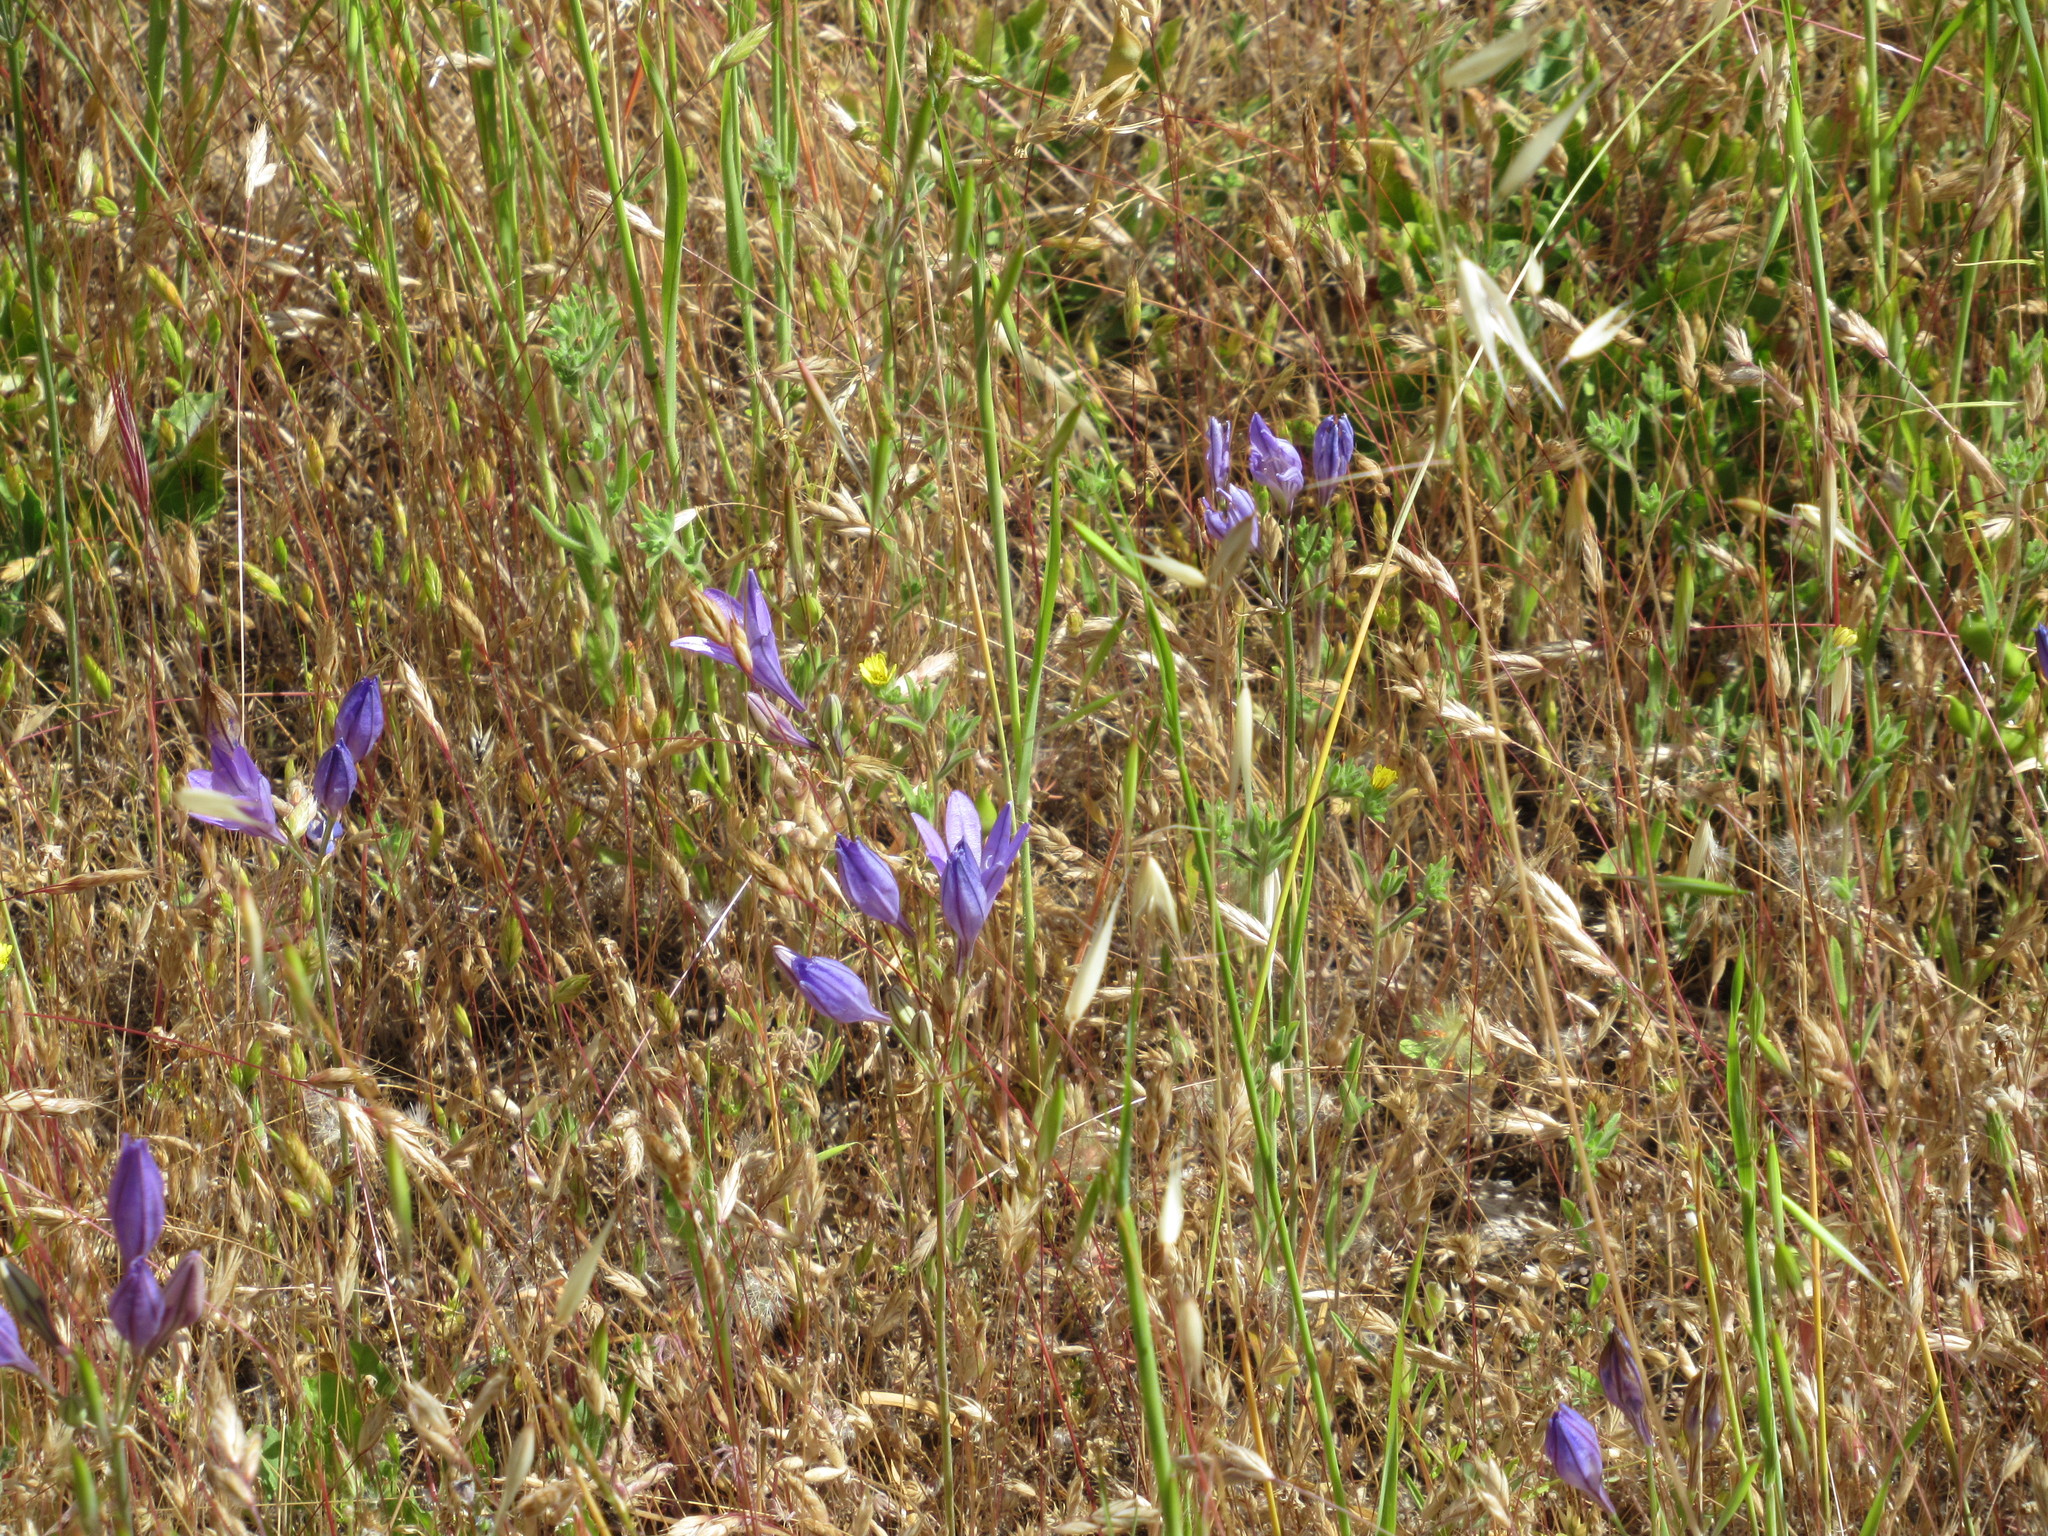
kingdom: Plantae
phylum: Tracheophyta
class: Liliopsida
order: Asparagales
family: Asparagaceae
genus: Triteleia
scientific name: Triteleia laxa
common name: Triplet-lily
